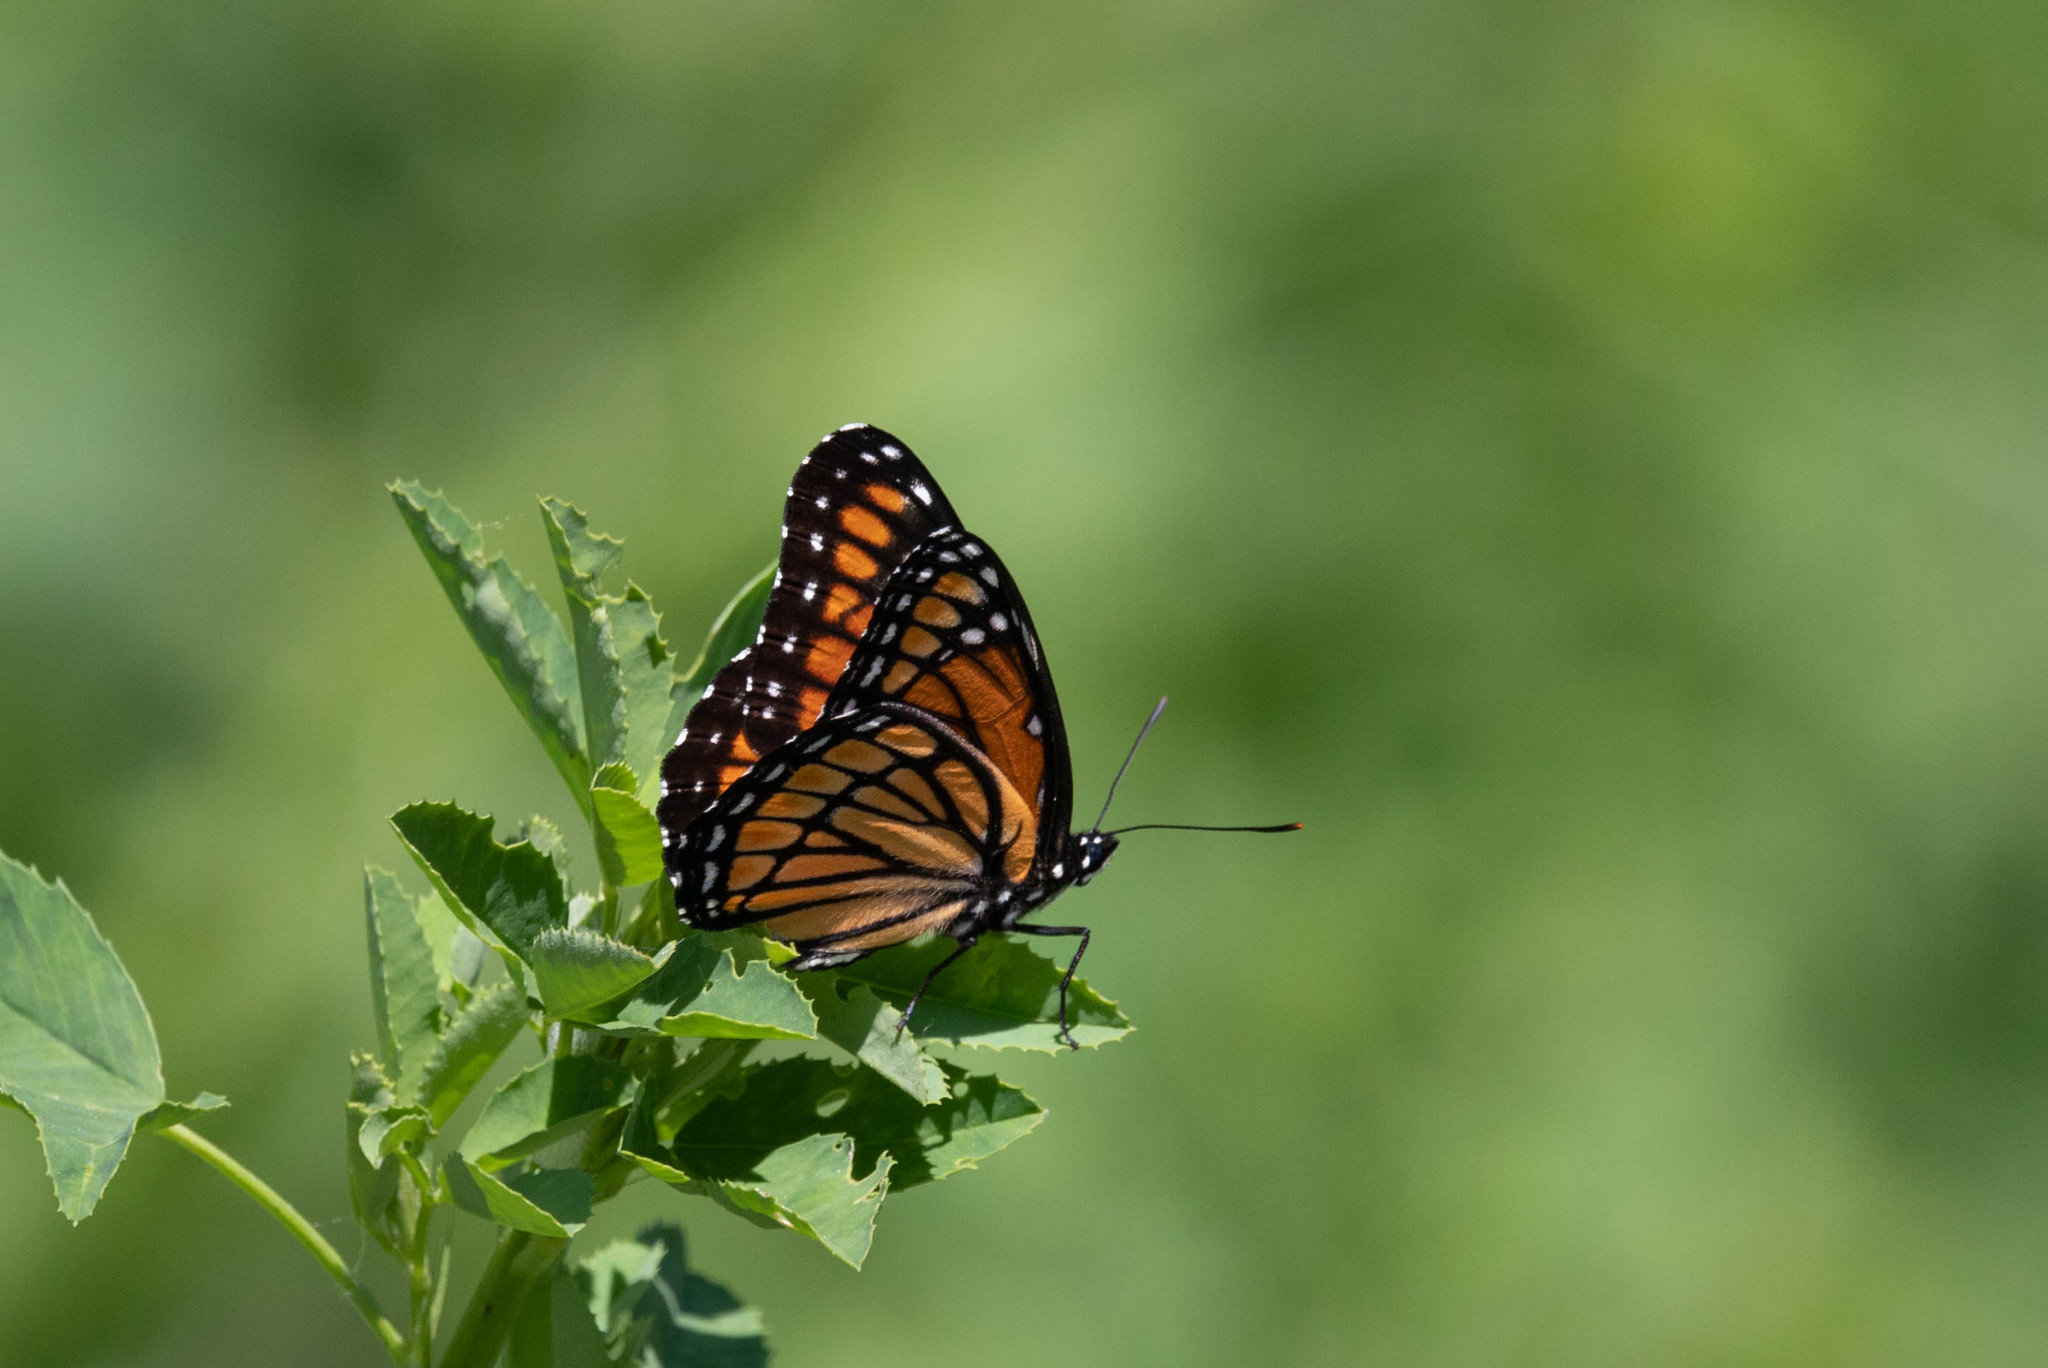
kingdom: Animalia
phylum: Arthropoda
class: Insecta
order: Lepidoptera
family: Nymphalidae
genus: Limenitis
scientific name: Limenitis archippus
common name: Viceroy
